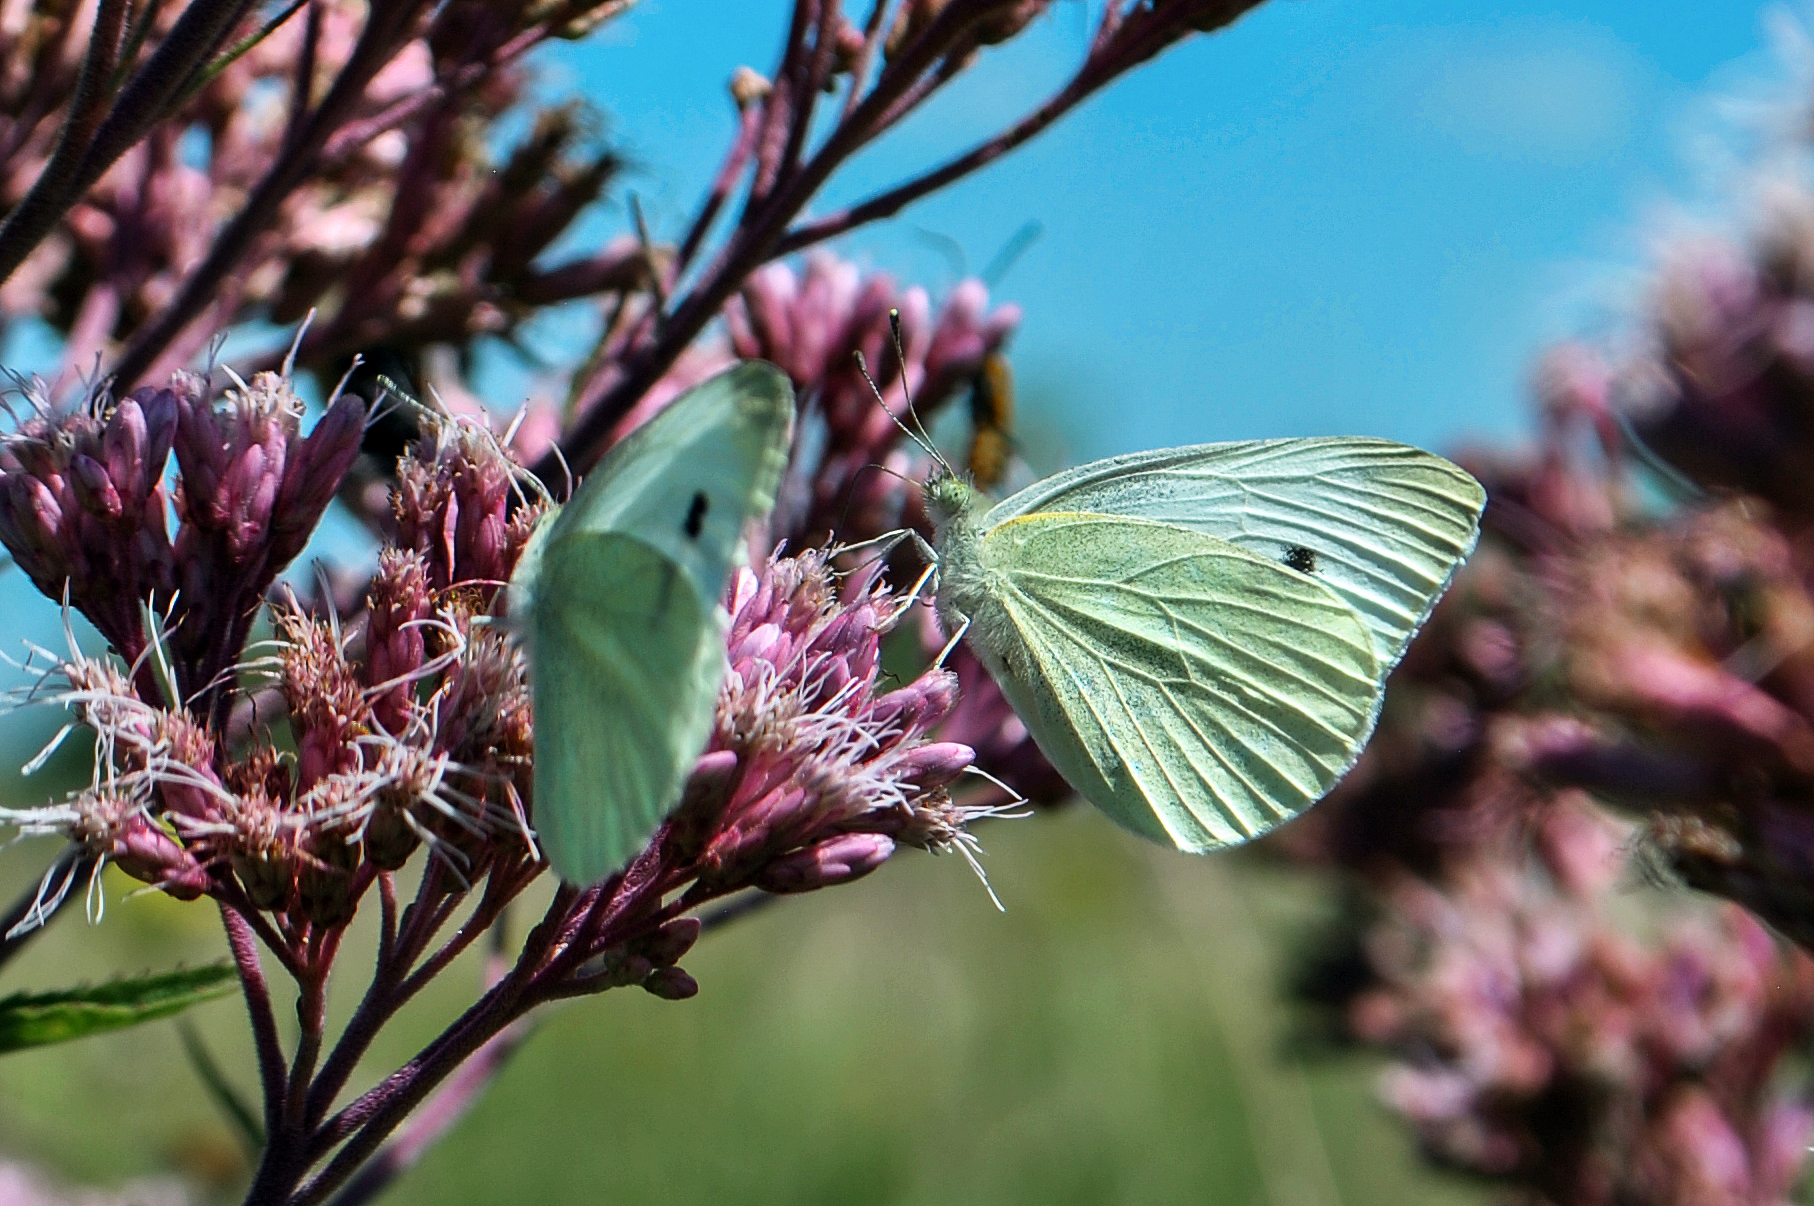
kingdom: Animalia
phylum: Arthropoda
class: Insecta
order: Lepidoptera
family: Pieridae
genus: Pieris
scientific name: Pieris rapae
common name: Small white
